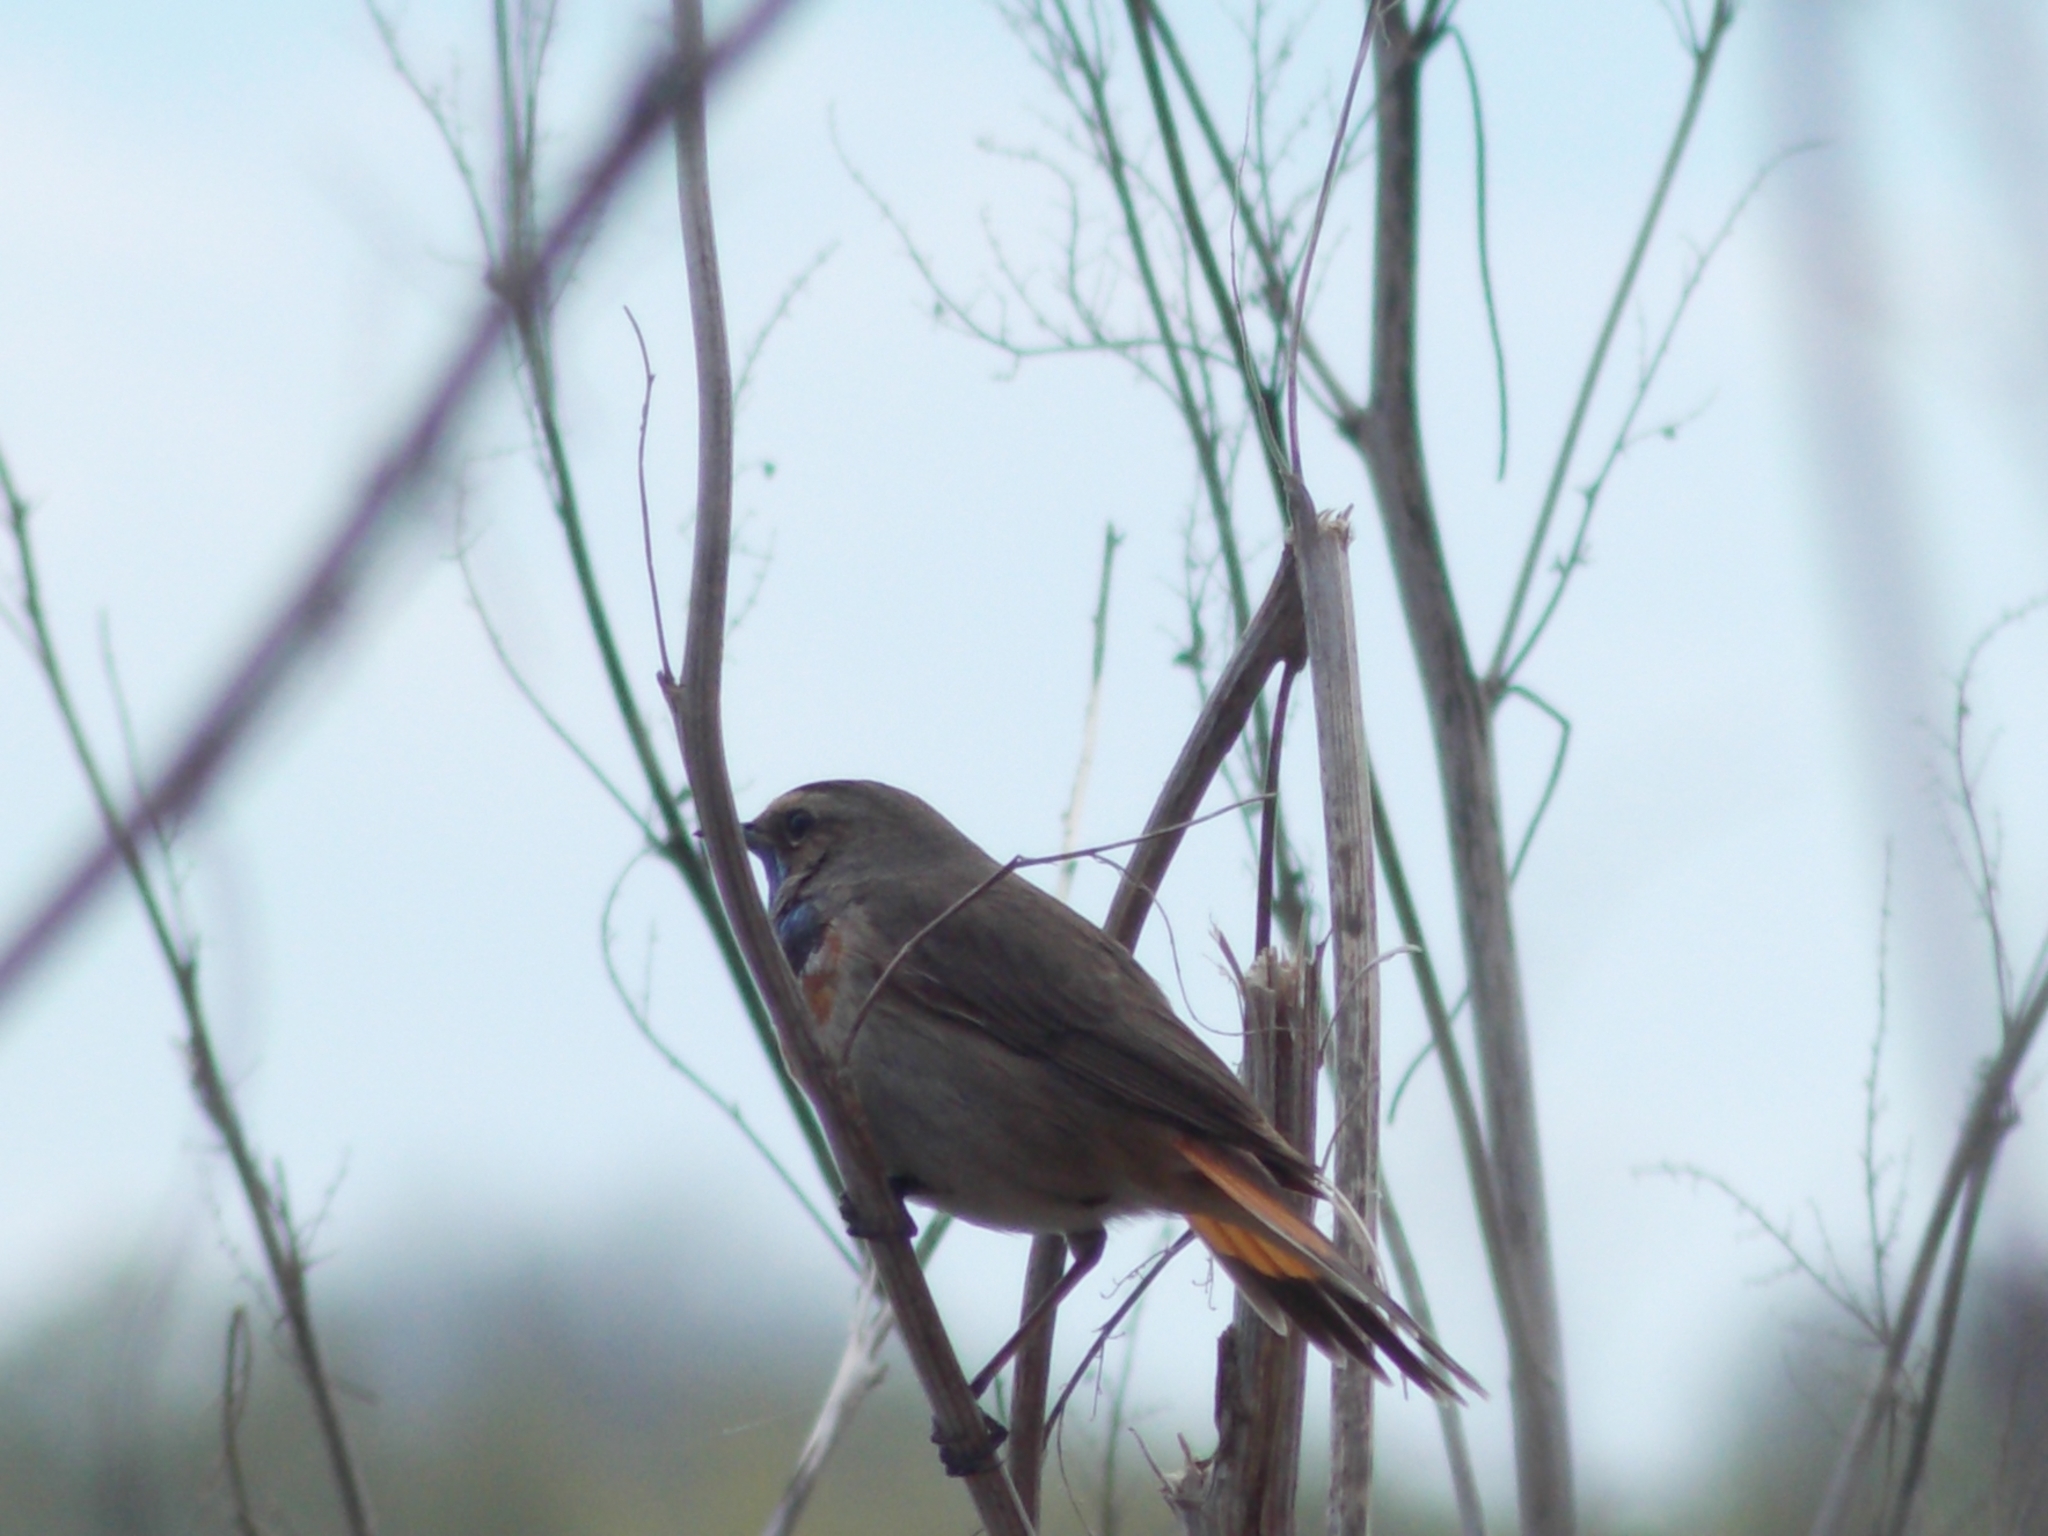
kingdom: Animalia
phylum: Chordata
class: Aves
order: Passeriformes
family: Muscicapidae
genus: Luscinia
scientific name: Luscinia svecica
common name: Bluethroat
